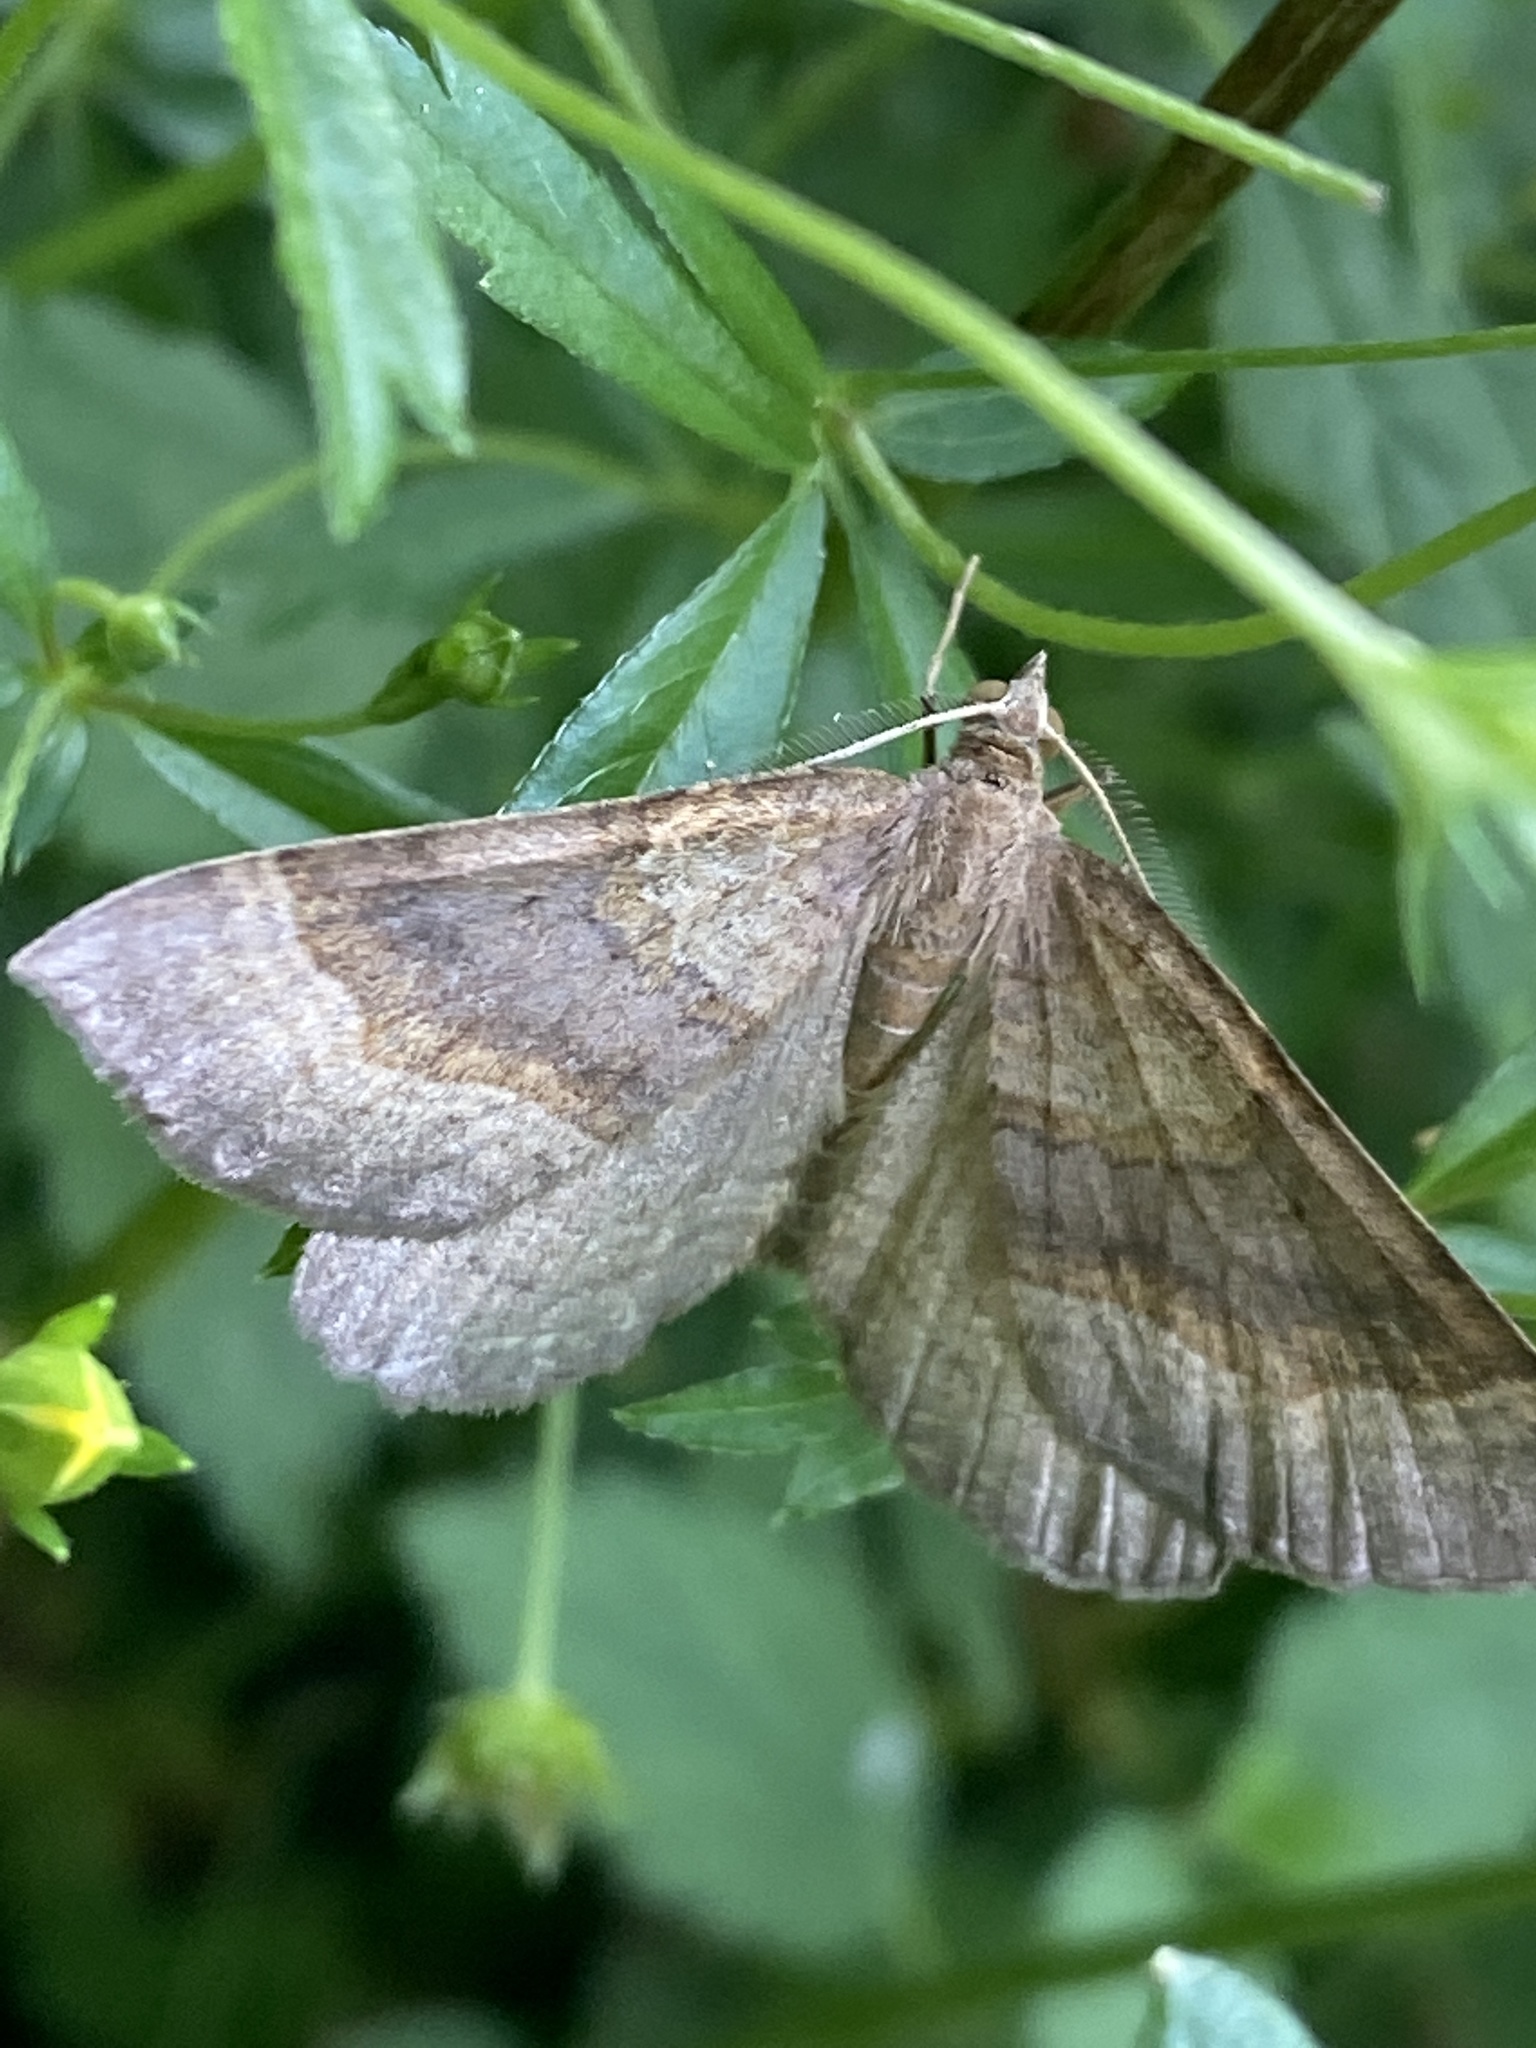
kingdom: Animalia
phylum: Arthropoda
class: Insecta
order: Lepidoptera
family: Geometridae
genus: Scotopteryx
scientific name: Scotopteryx chenopodiata
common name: Shaded broad-bar
